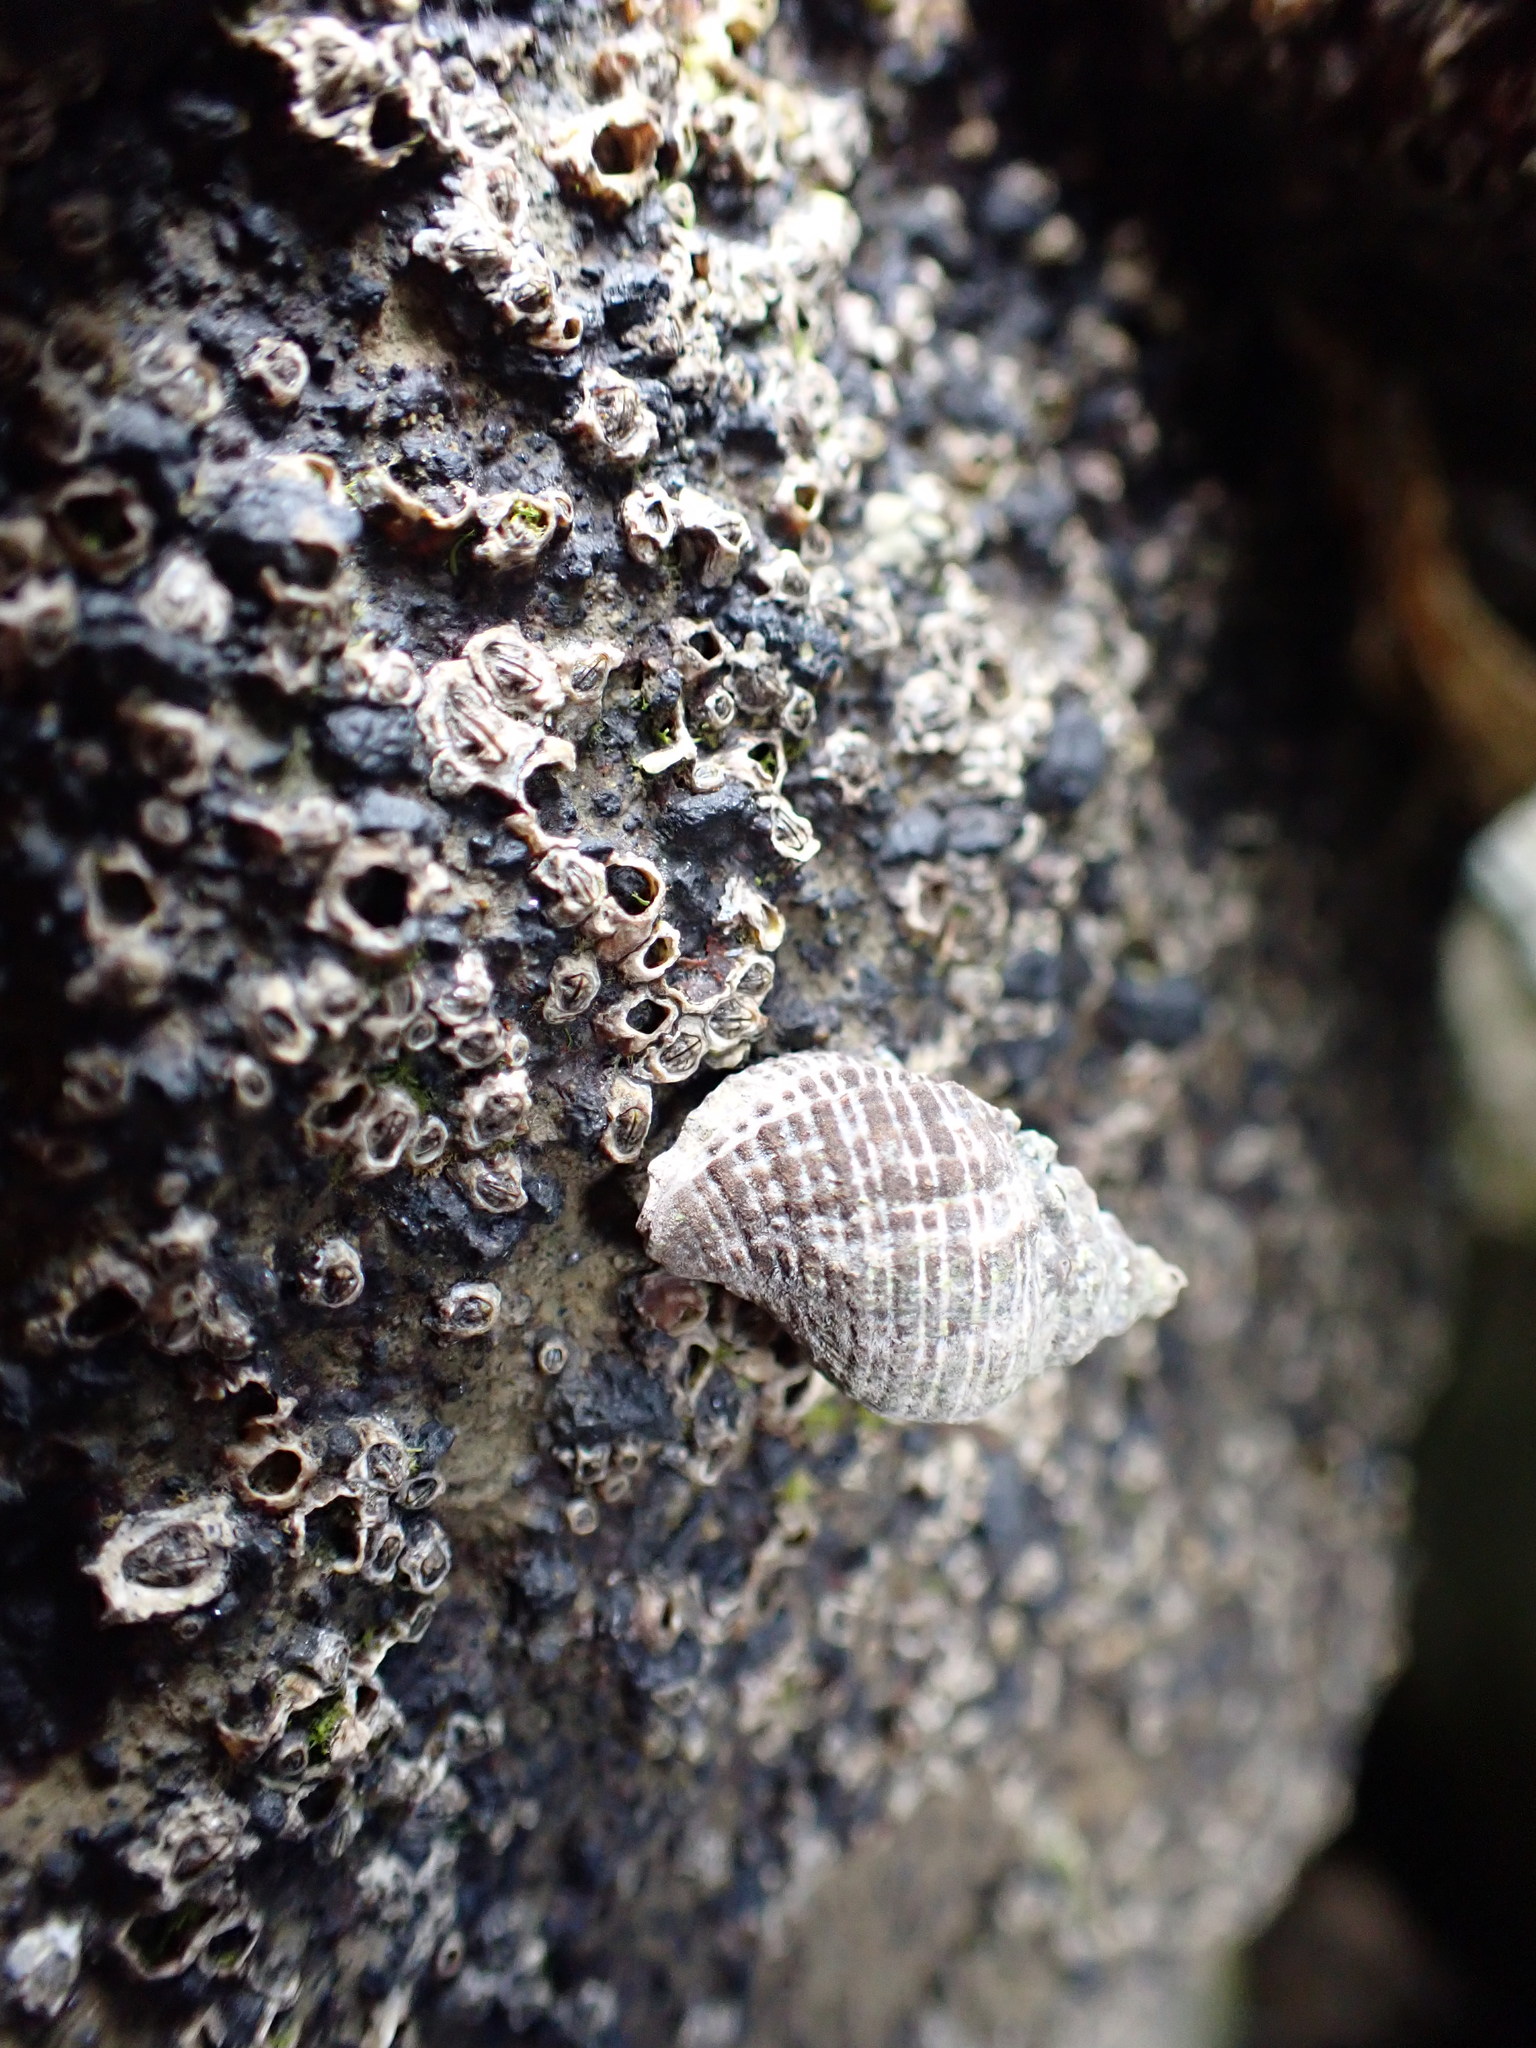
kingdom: Animalia
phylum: Mollusca
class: Gastropoda
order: Neogastropoda
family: Muricidae
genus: Haustrum
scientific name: Haustrum albomarginatum
